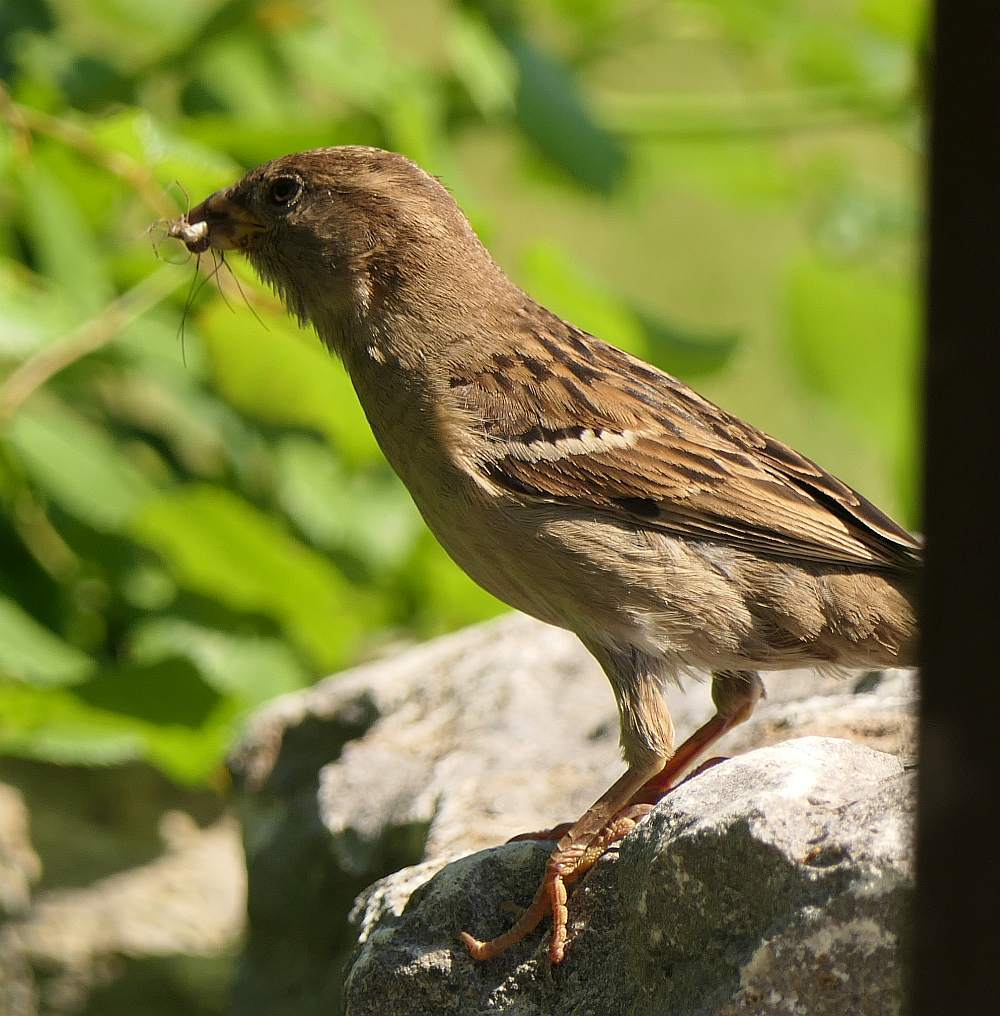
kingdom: Animalia
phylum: Chordata
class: Aves
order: Passeriformes
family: Passeridae
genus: Passer
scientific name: Passer domesticus
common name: House sparrow
